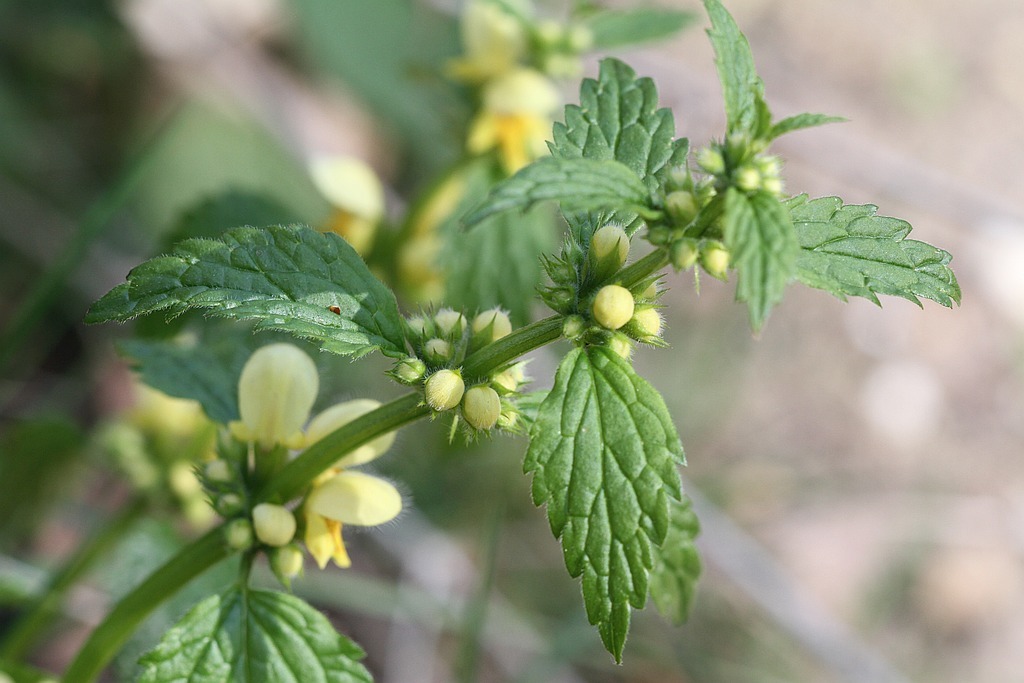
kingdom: Plantae
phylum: Tracheophyta
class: Magnoliopsida
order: Lamiales
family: Lamiaceae
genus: Lamium
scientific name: Lamium galeobdolon
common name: Yellow archangel
